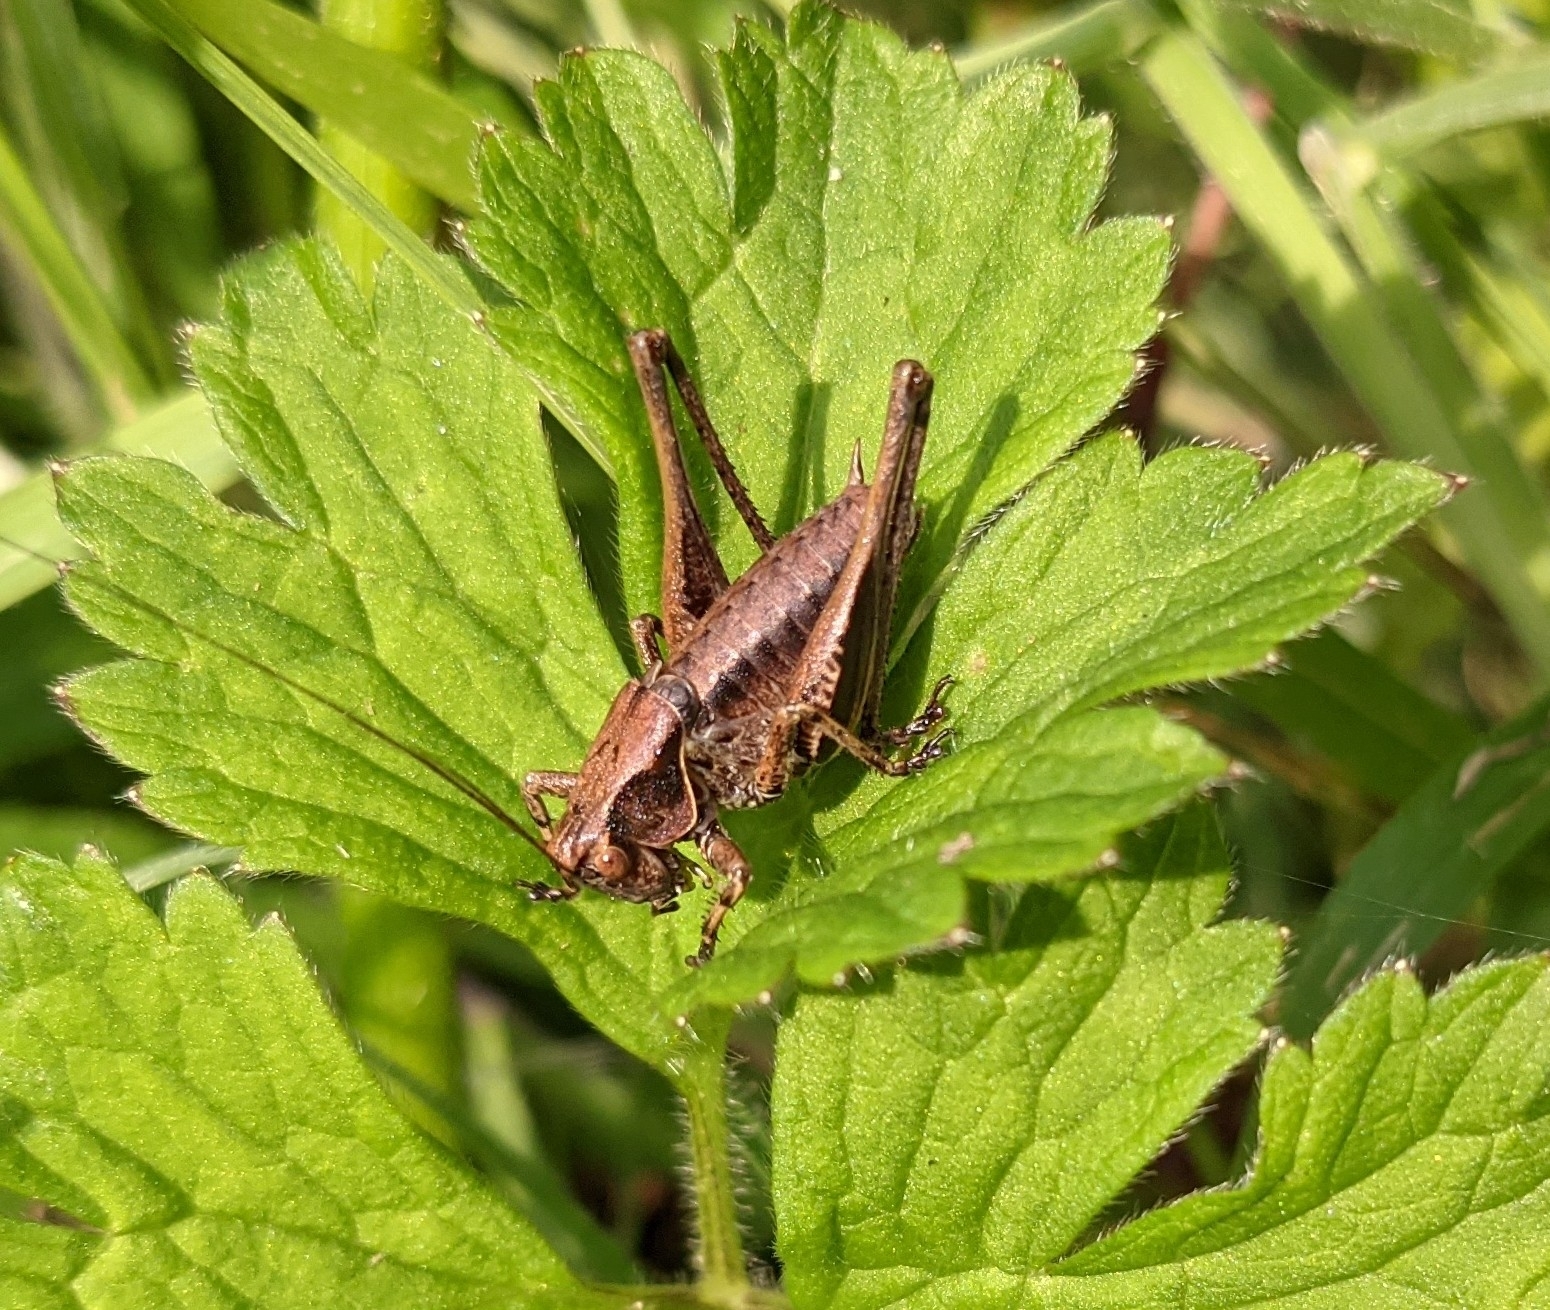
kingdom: Animalia
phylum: Arthropoda
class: Insecta
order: Orthoptera
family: Tettigoniidae
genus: Pholidoptera
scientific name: Pholidoptera griseoaptera
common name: Dark bush-cricket
